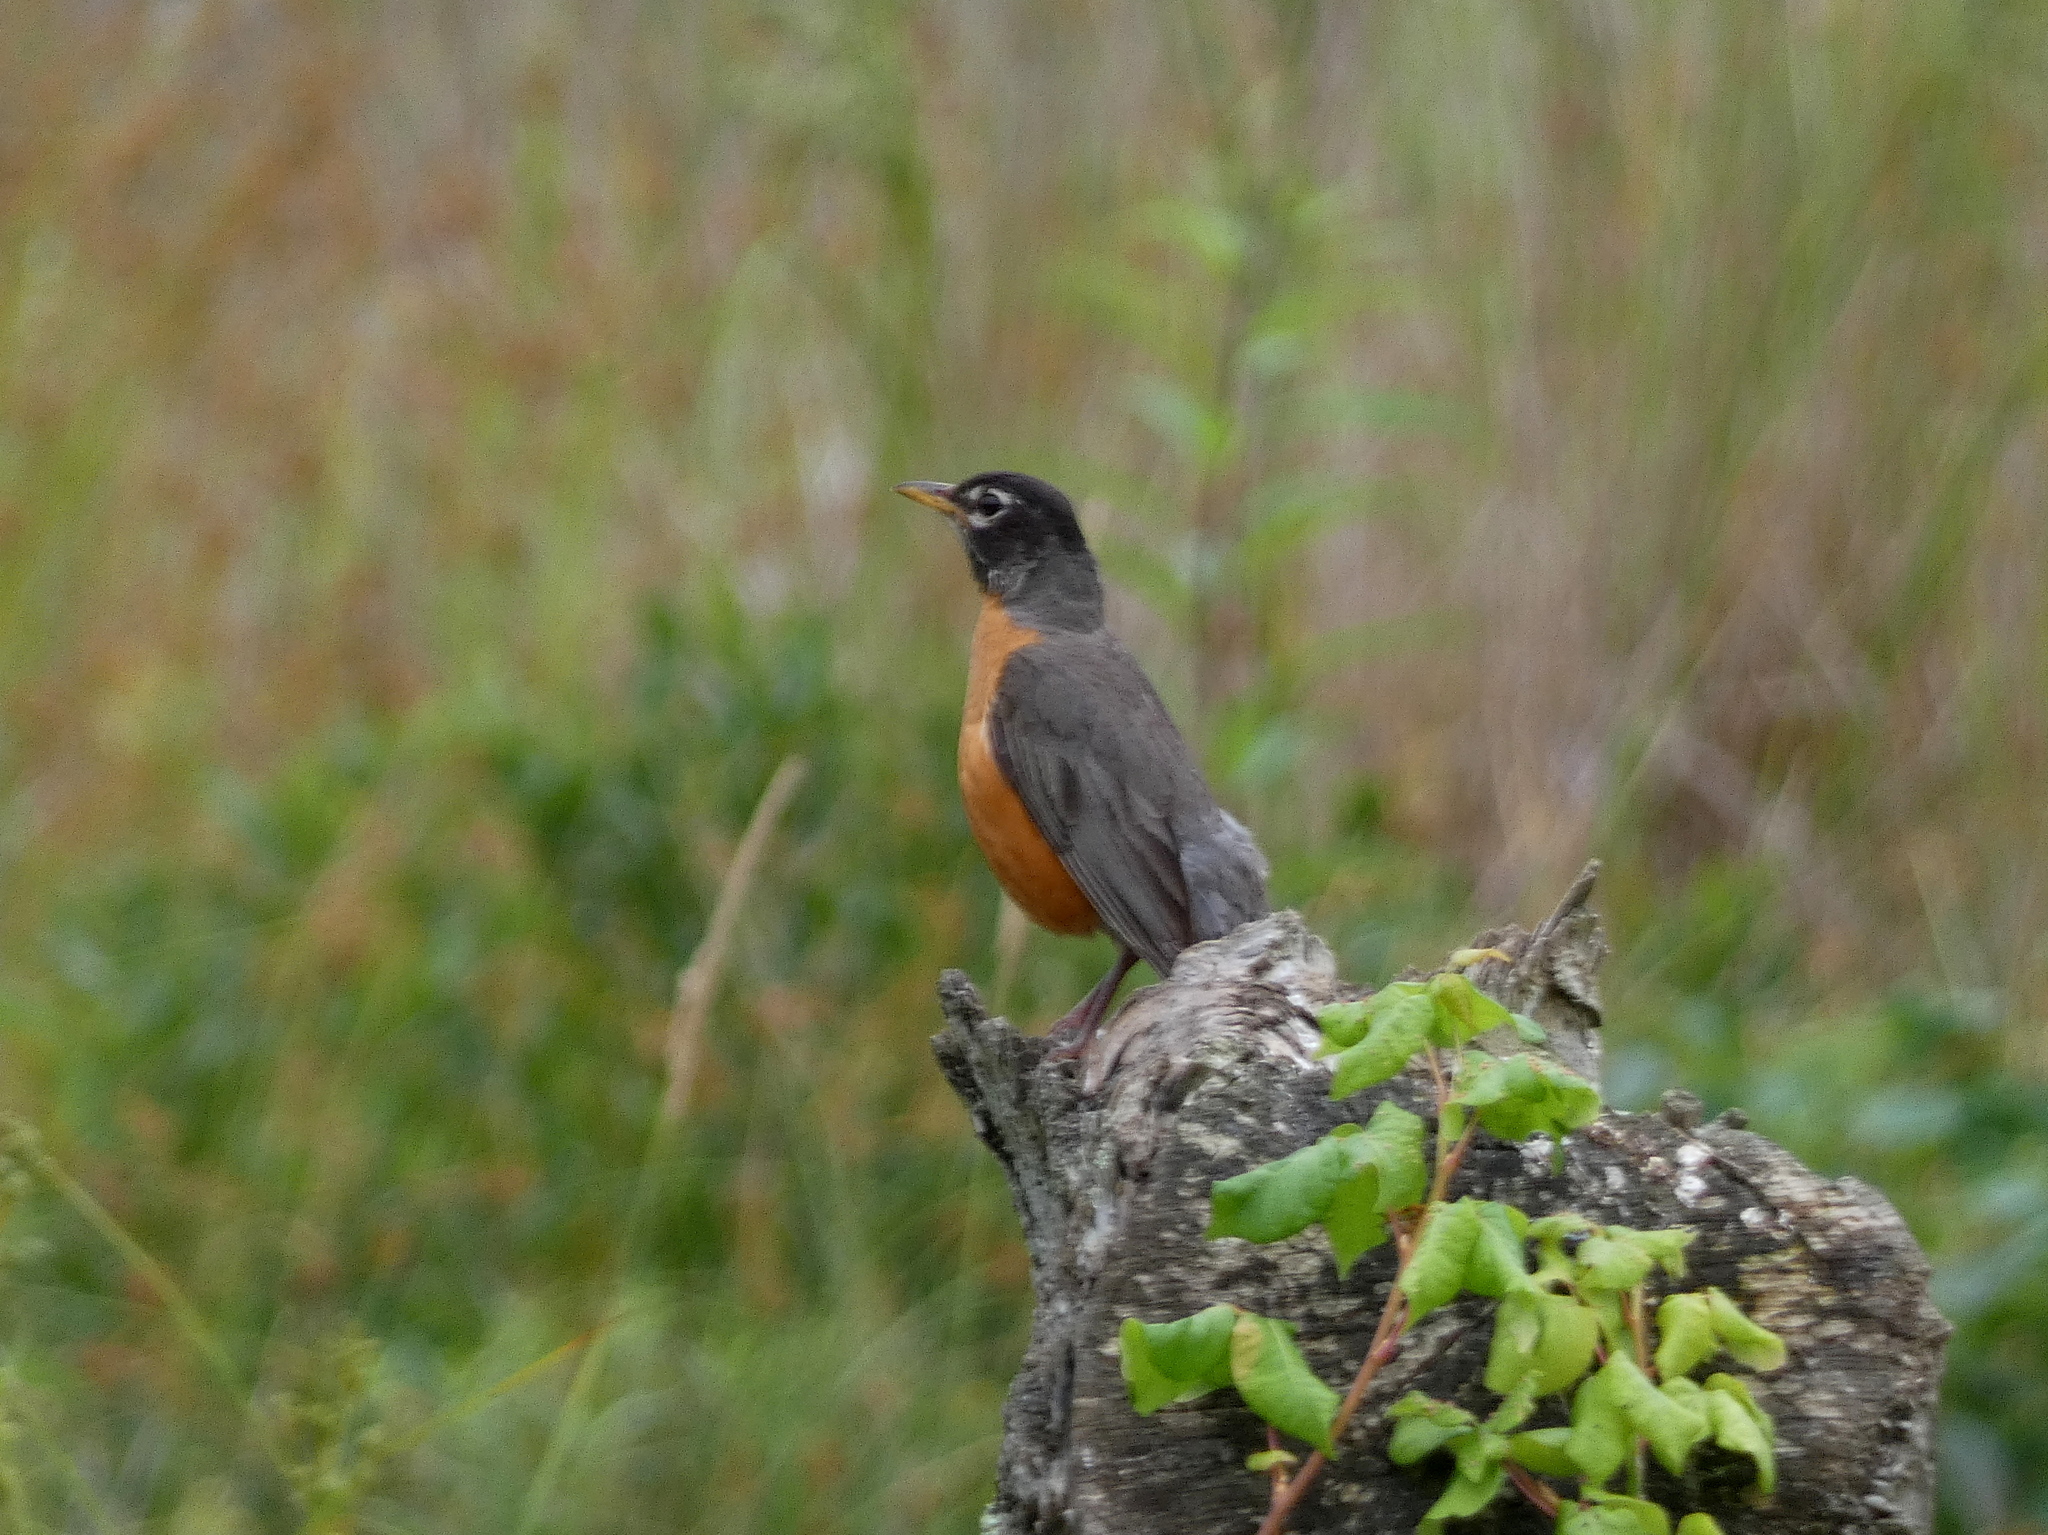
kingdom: Animalia
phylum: Chordata
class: Aves
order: Passeriformes
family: Turdidae
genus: Turdus
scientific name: Turdus migratorius
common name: American robin
